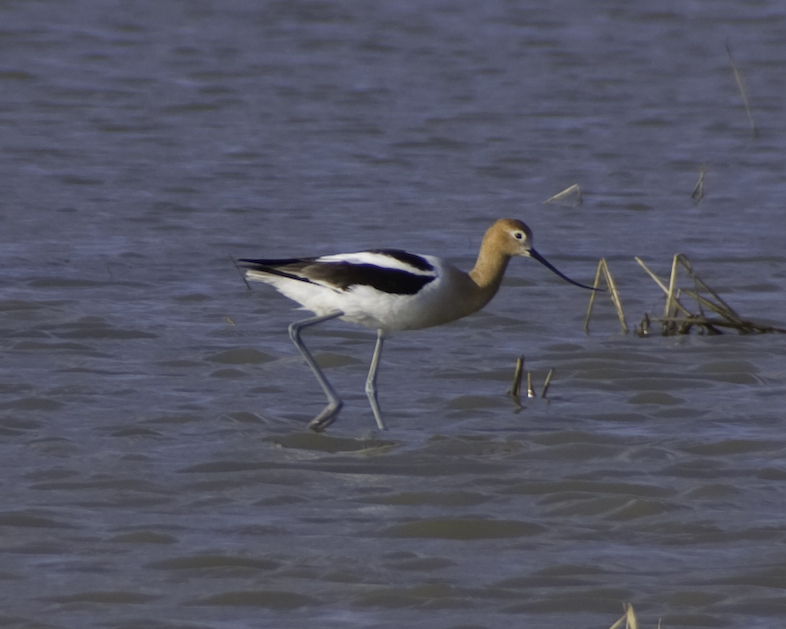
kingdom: Animalia
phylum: Chordata
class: Aves
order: Charadriiformes
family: Recurvirostridae
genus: Recurvirostra
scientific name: Recurvirostra americana
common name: American avocet
